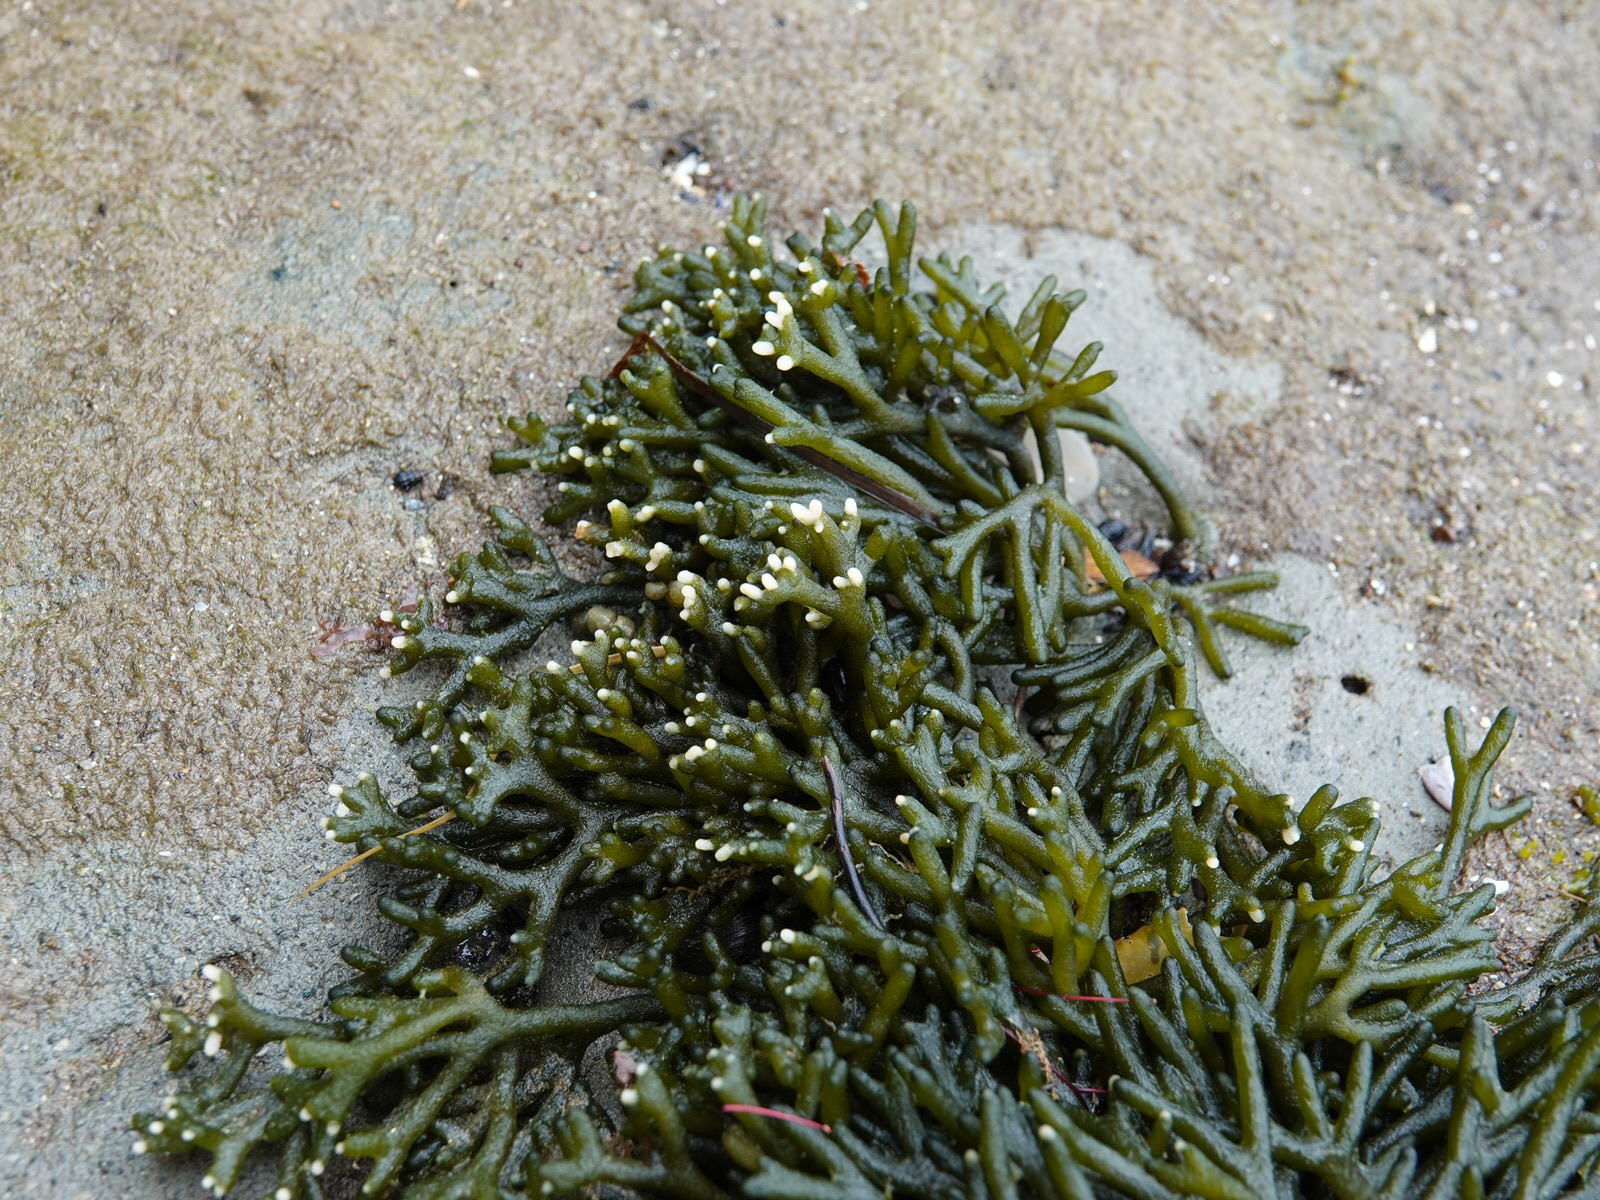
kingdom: Plantae
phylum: Chlorophyta
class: Ulvophyceae
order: Bryopsidales
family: Codiaceae
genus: Codium
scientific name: Codium fragile
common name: Dead man's fingers
